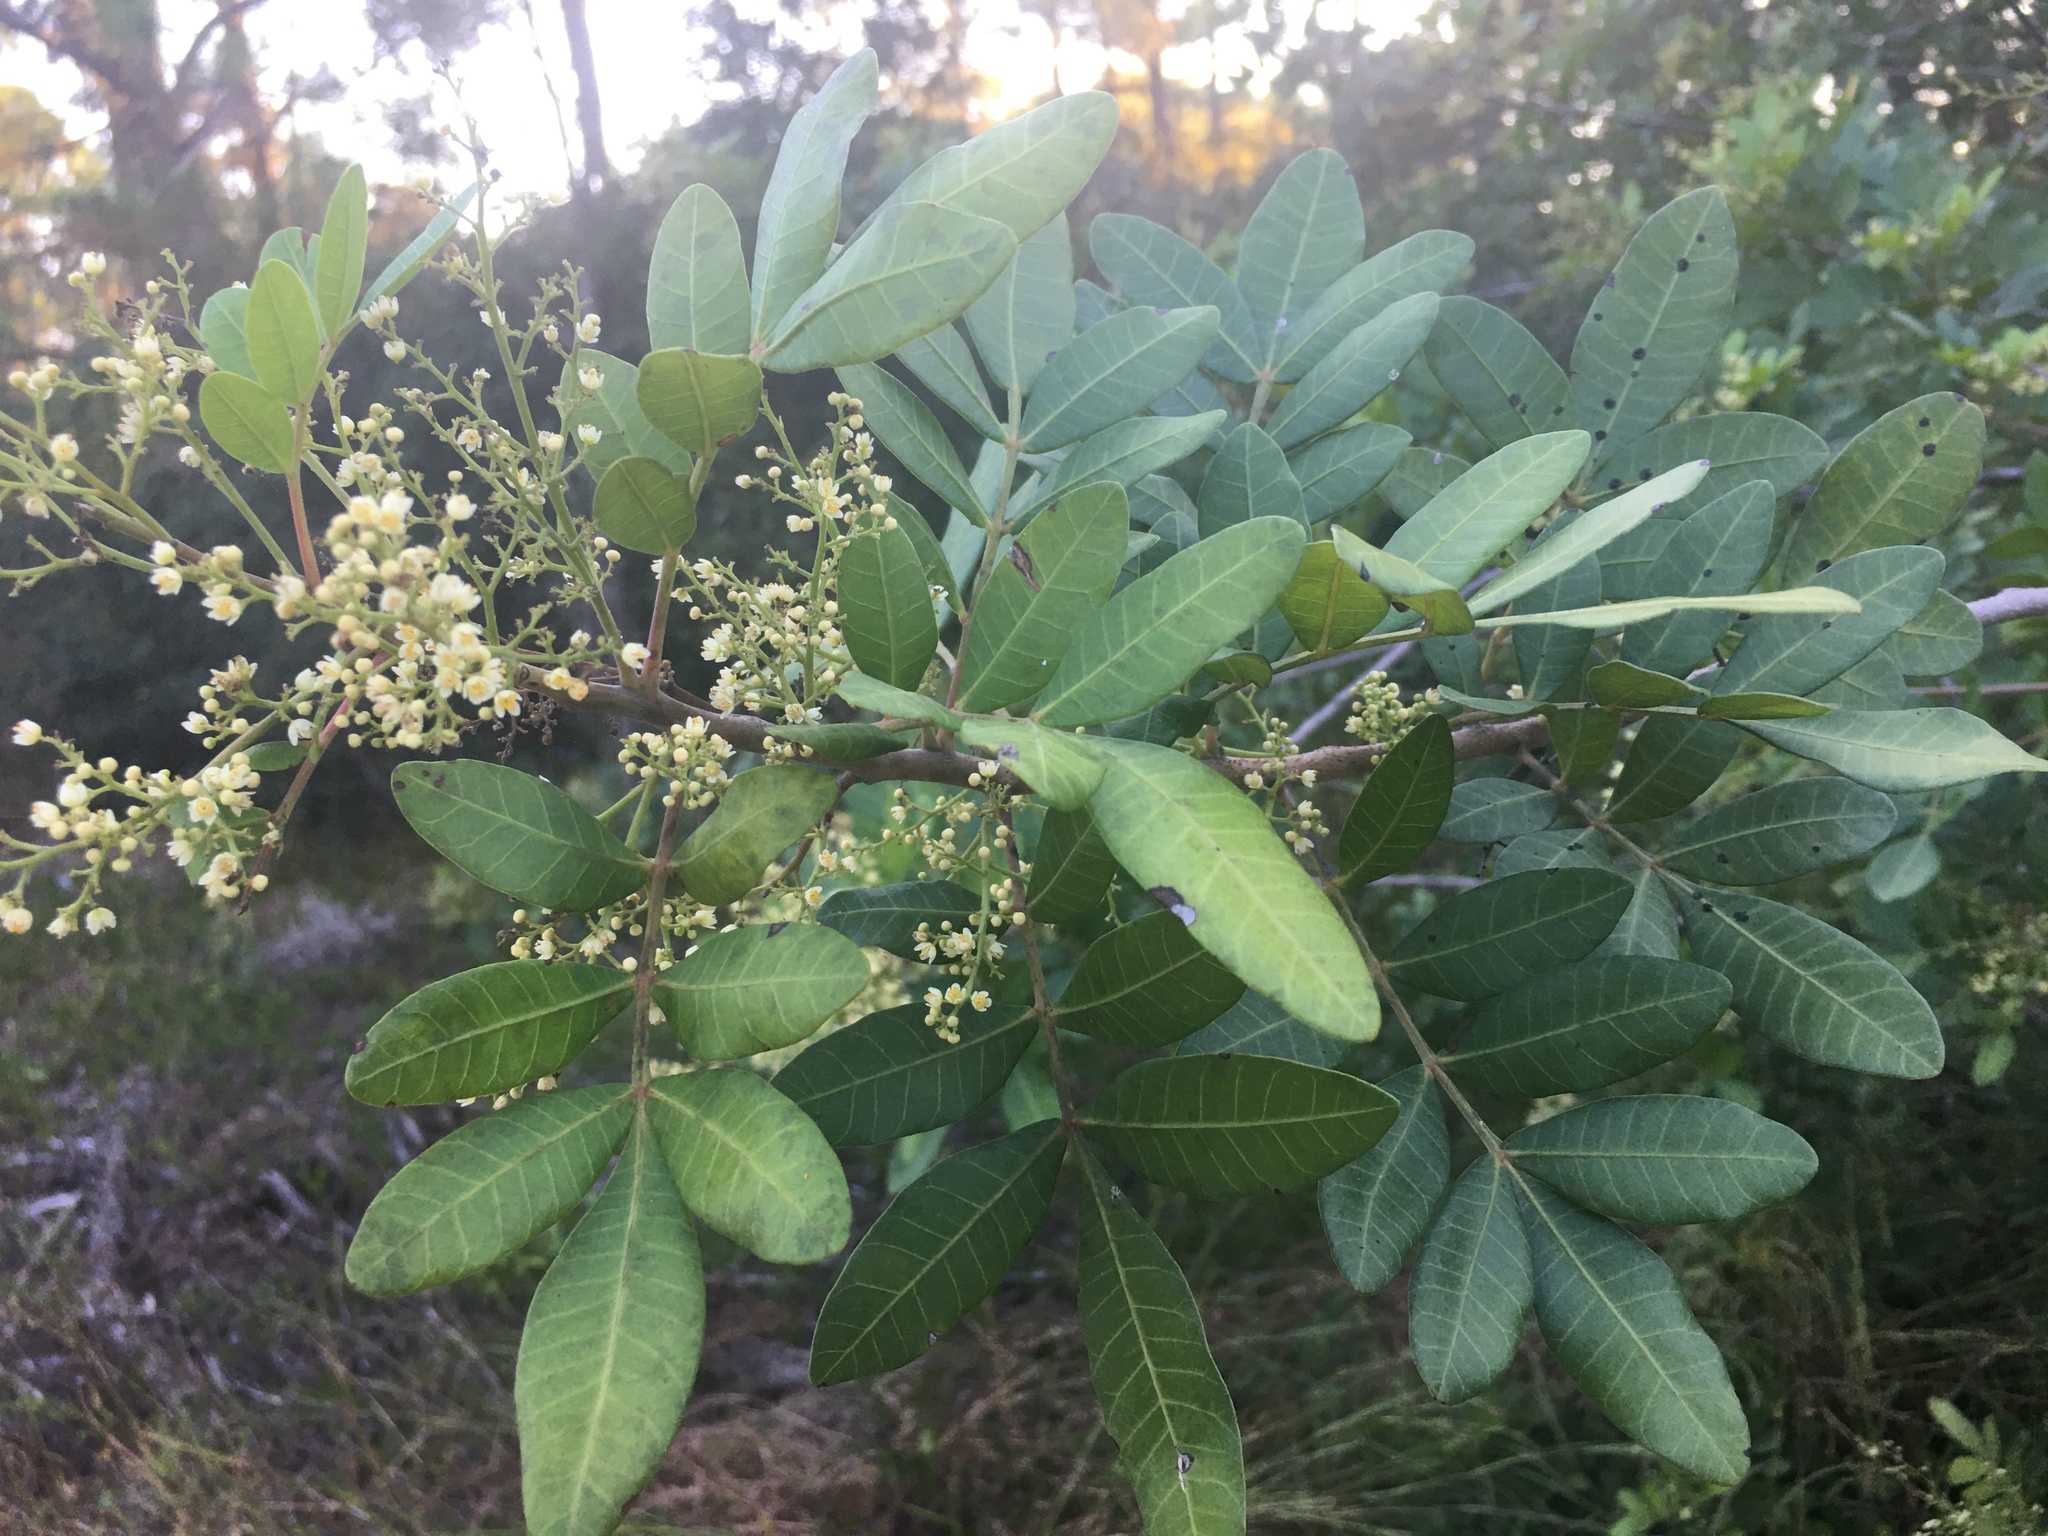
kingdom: Plantae
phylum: Tracheophyta
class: Magnoliopsida
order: Sapindales
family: Anacardiaceae
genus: Schinus
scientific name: Schinus terebinthifolia
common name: Brazilian peppertree
